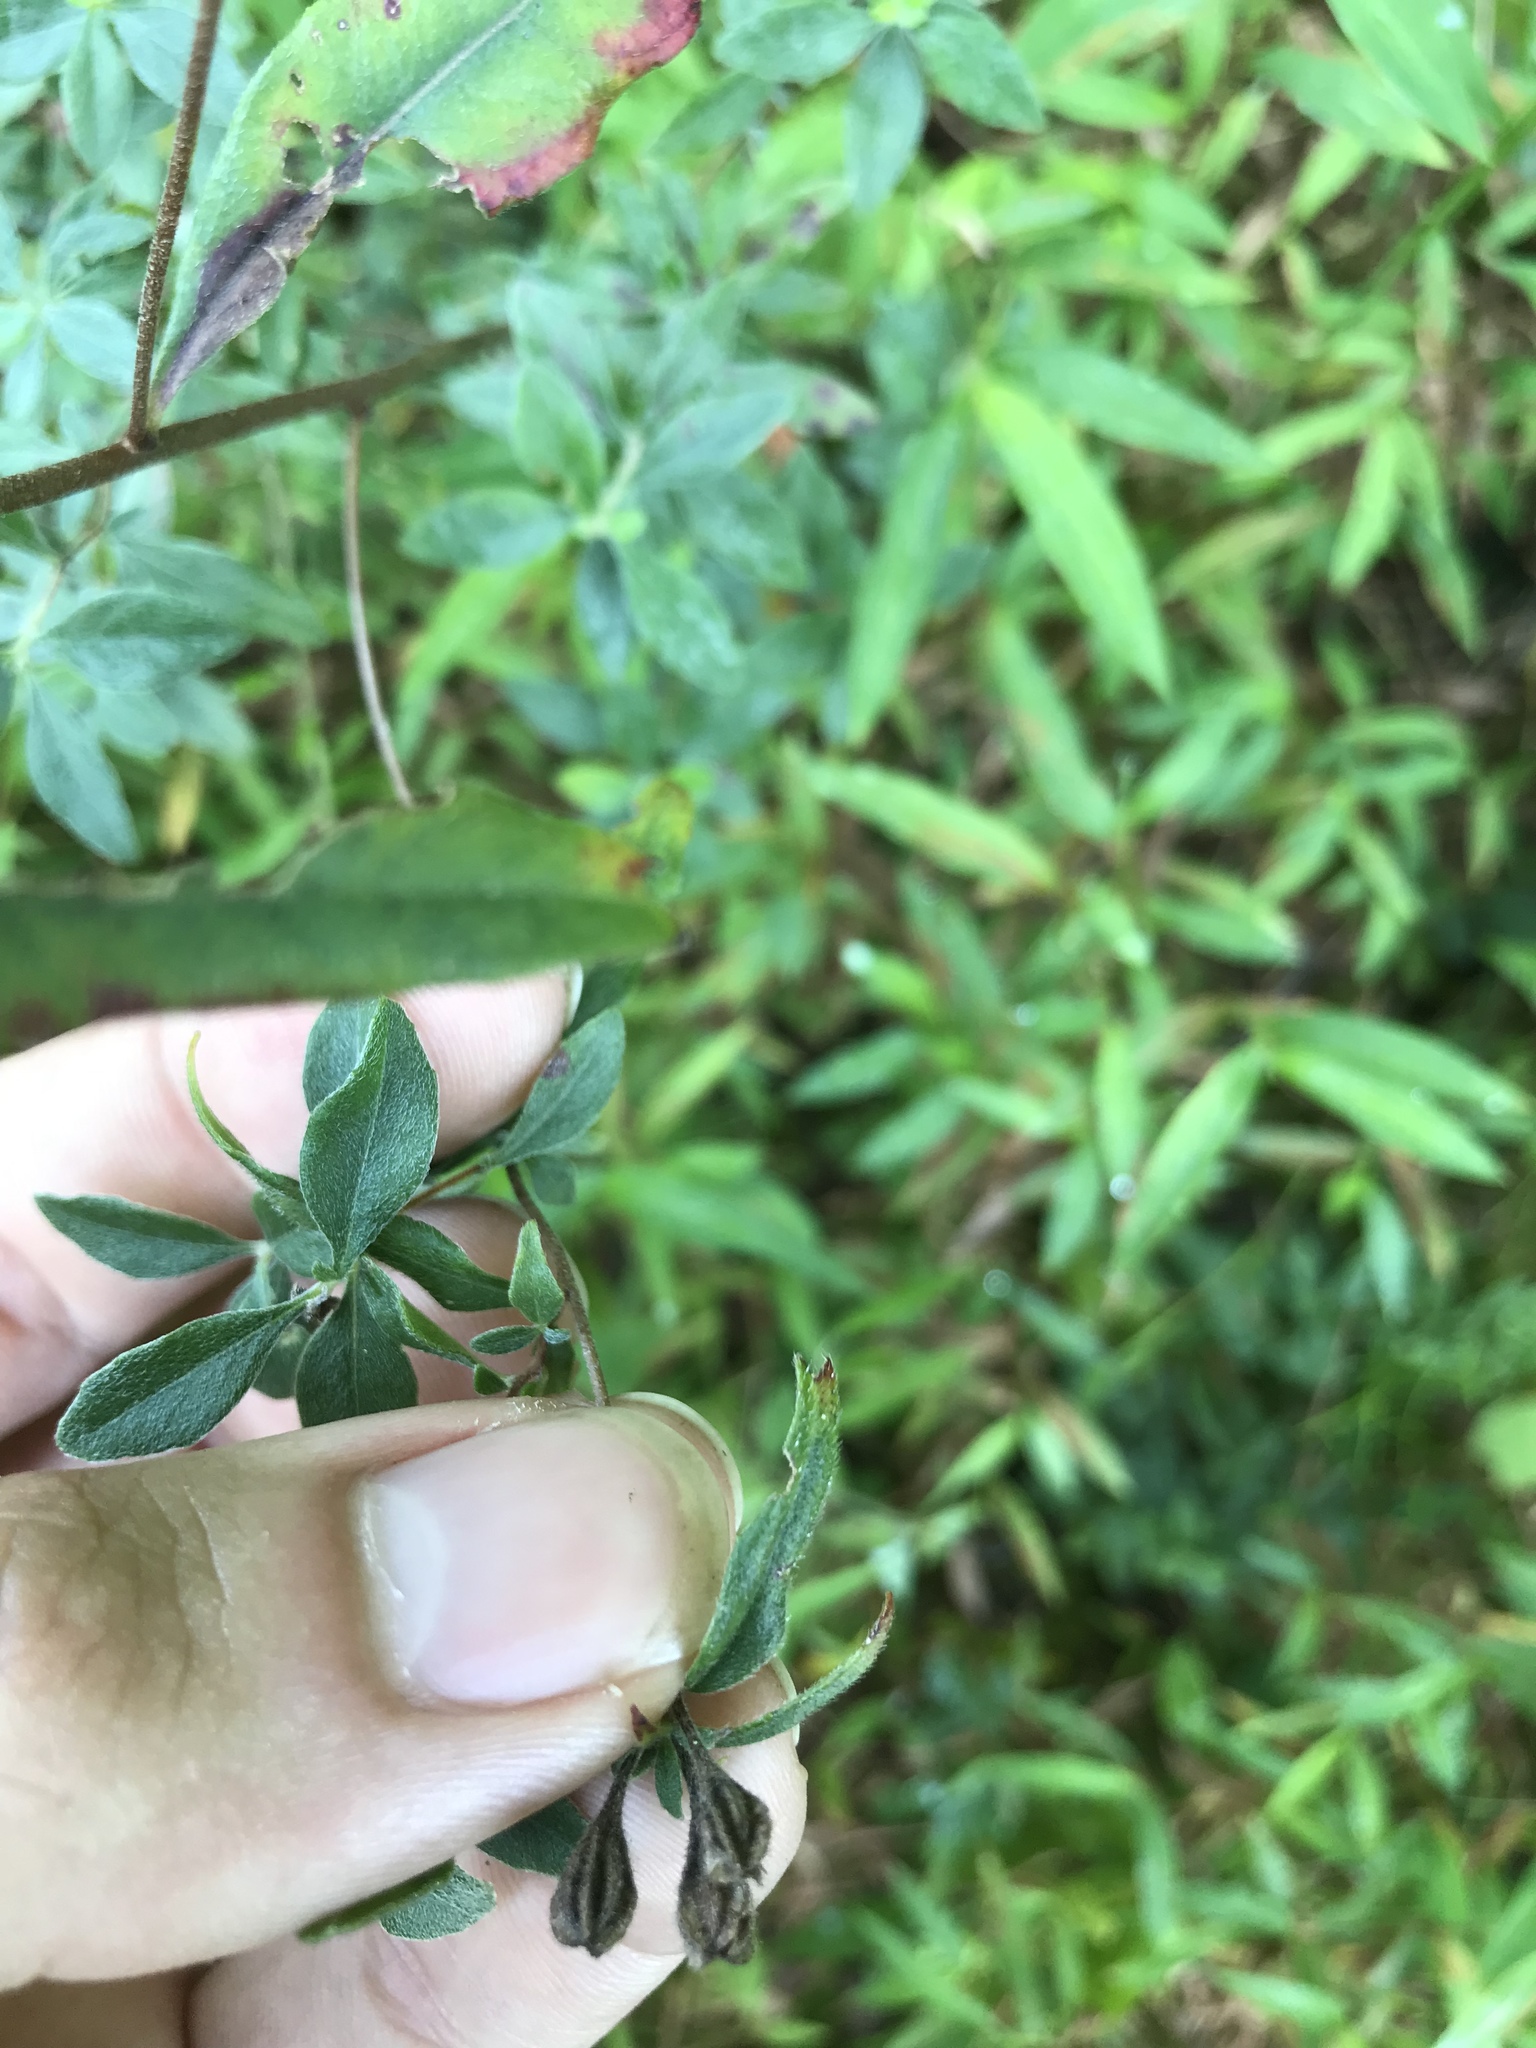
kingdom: Plantae
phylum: Tracheophyta
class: Magnoliopsida
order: Myrtales
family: Onagraceae
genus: Oenothera
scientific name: Oenothera fruticosa
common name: Southern sundrops
